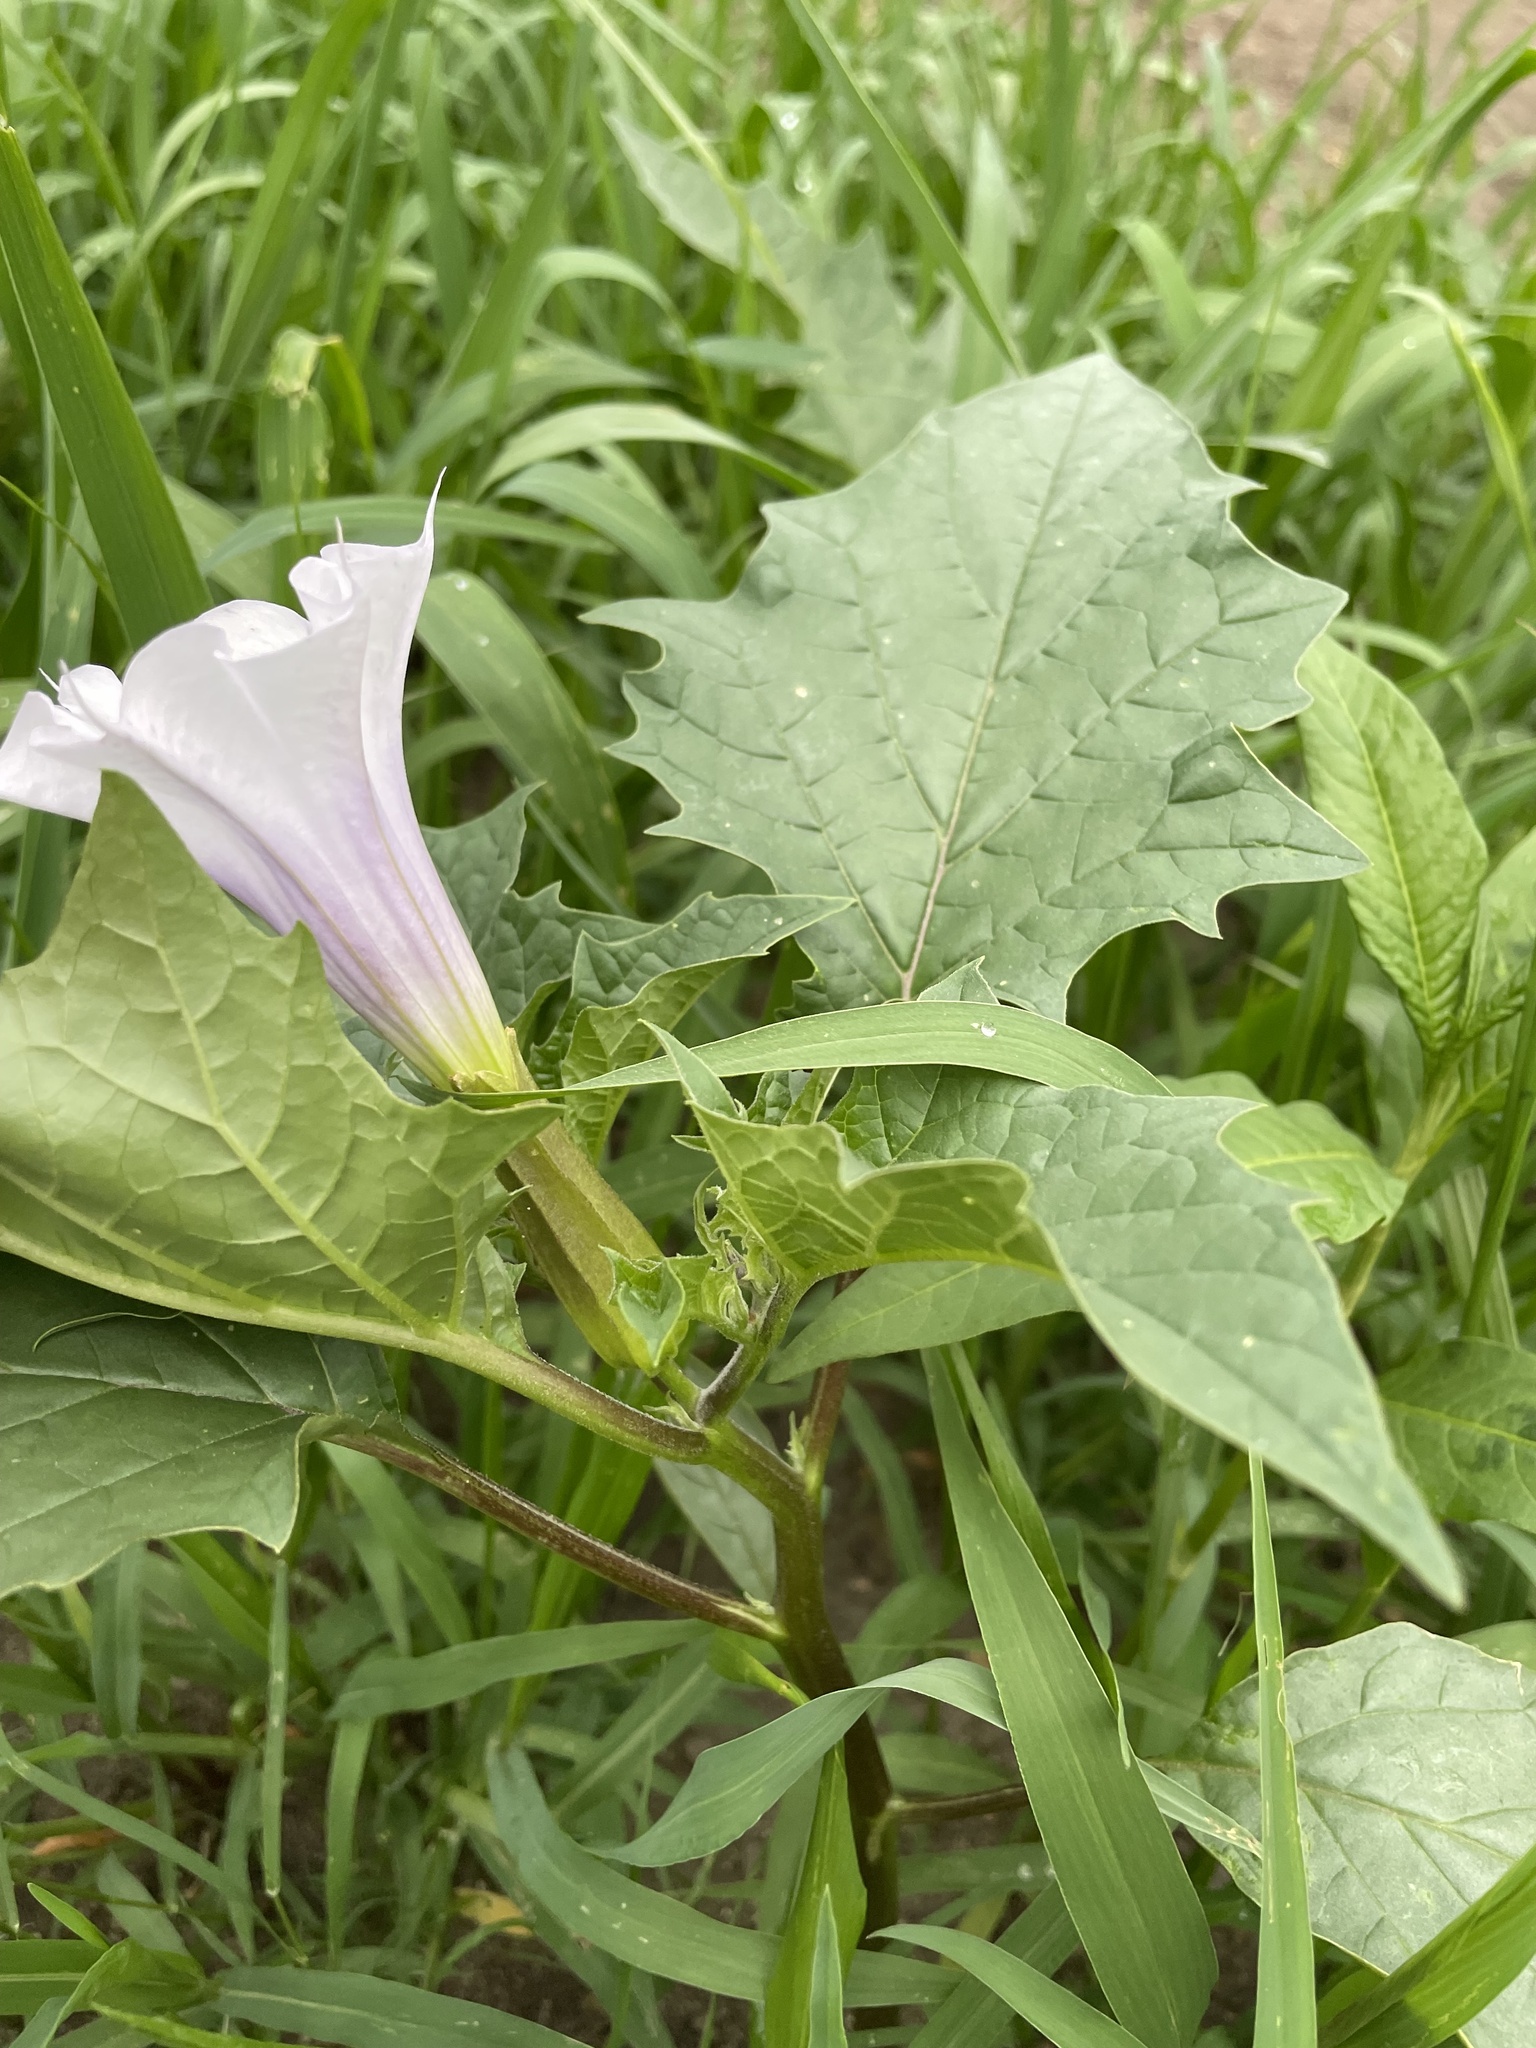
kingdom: Plantae
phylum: Tracheophyta
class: Magnoliopsida
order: Solanales
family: Solanaceae
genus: Datura
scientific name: Datura stramonium
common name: Thorn-apple
